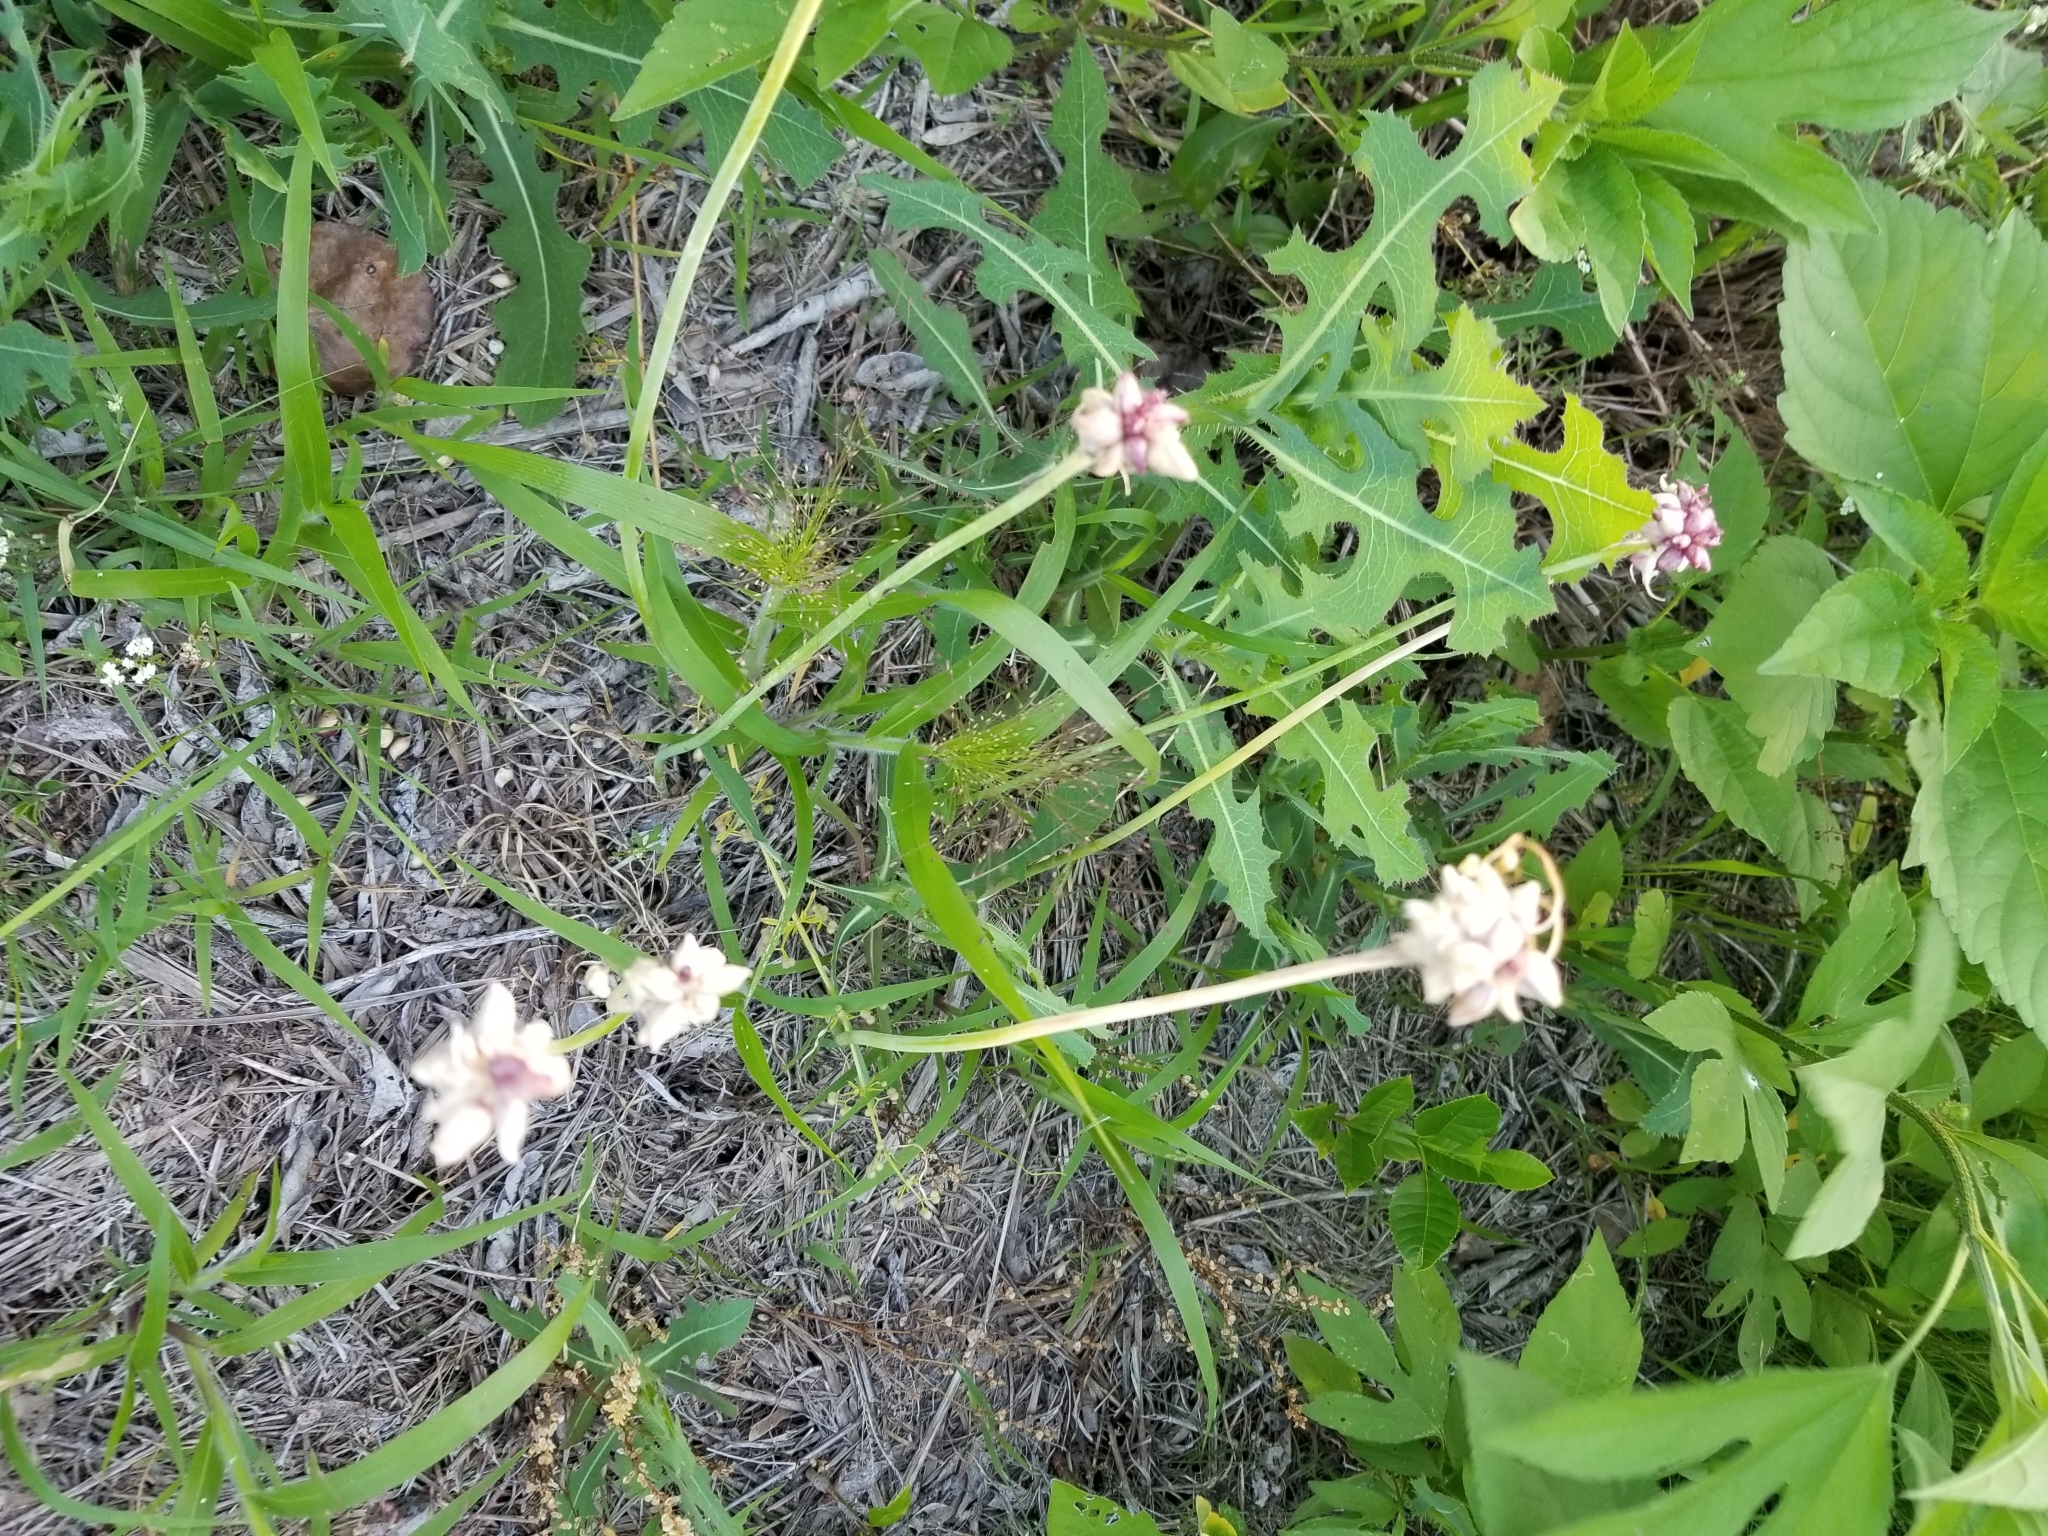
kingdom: Plantae
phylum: Tracheophyta
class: Liliopsida
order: Asparagales
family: Amaryllidaceae
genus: Allium
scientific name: Allium canadense
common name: Meadow garlic
